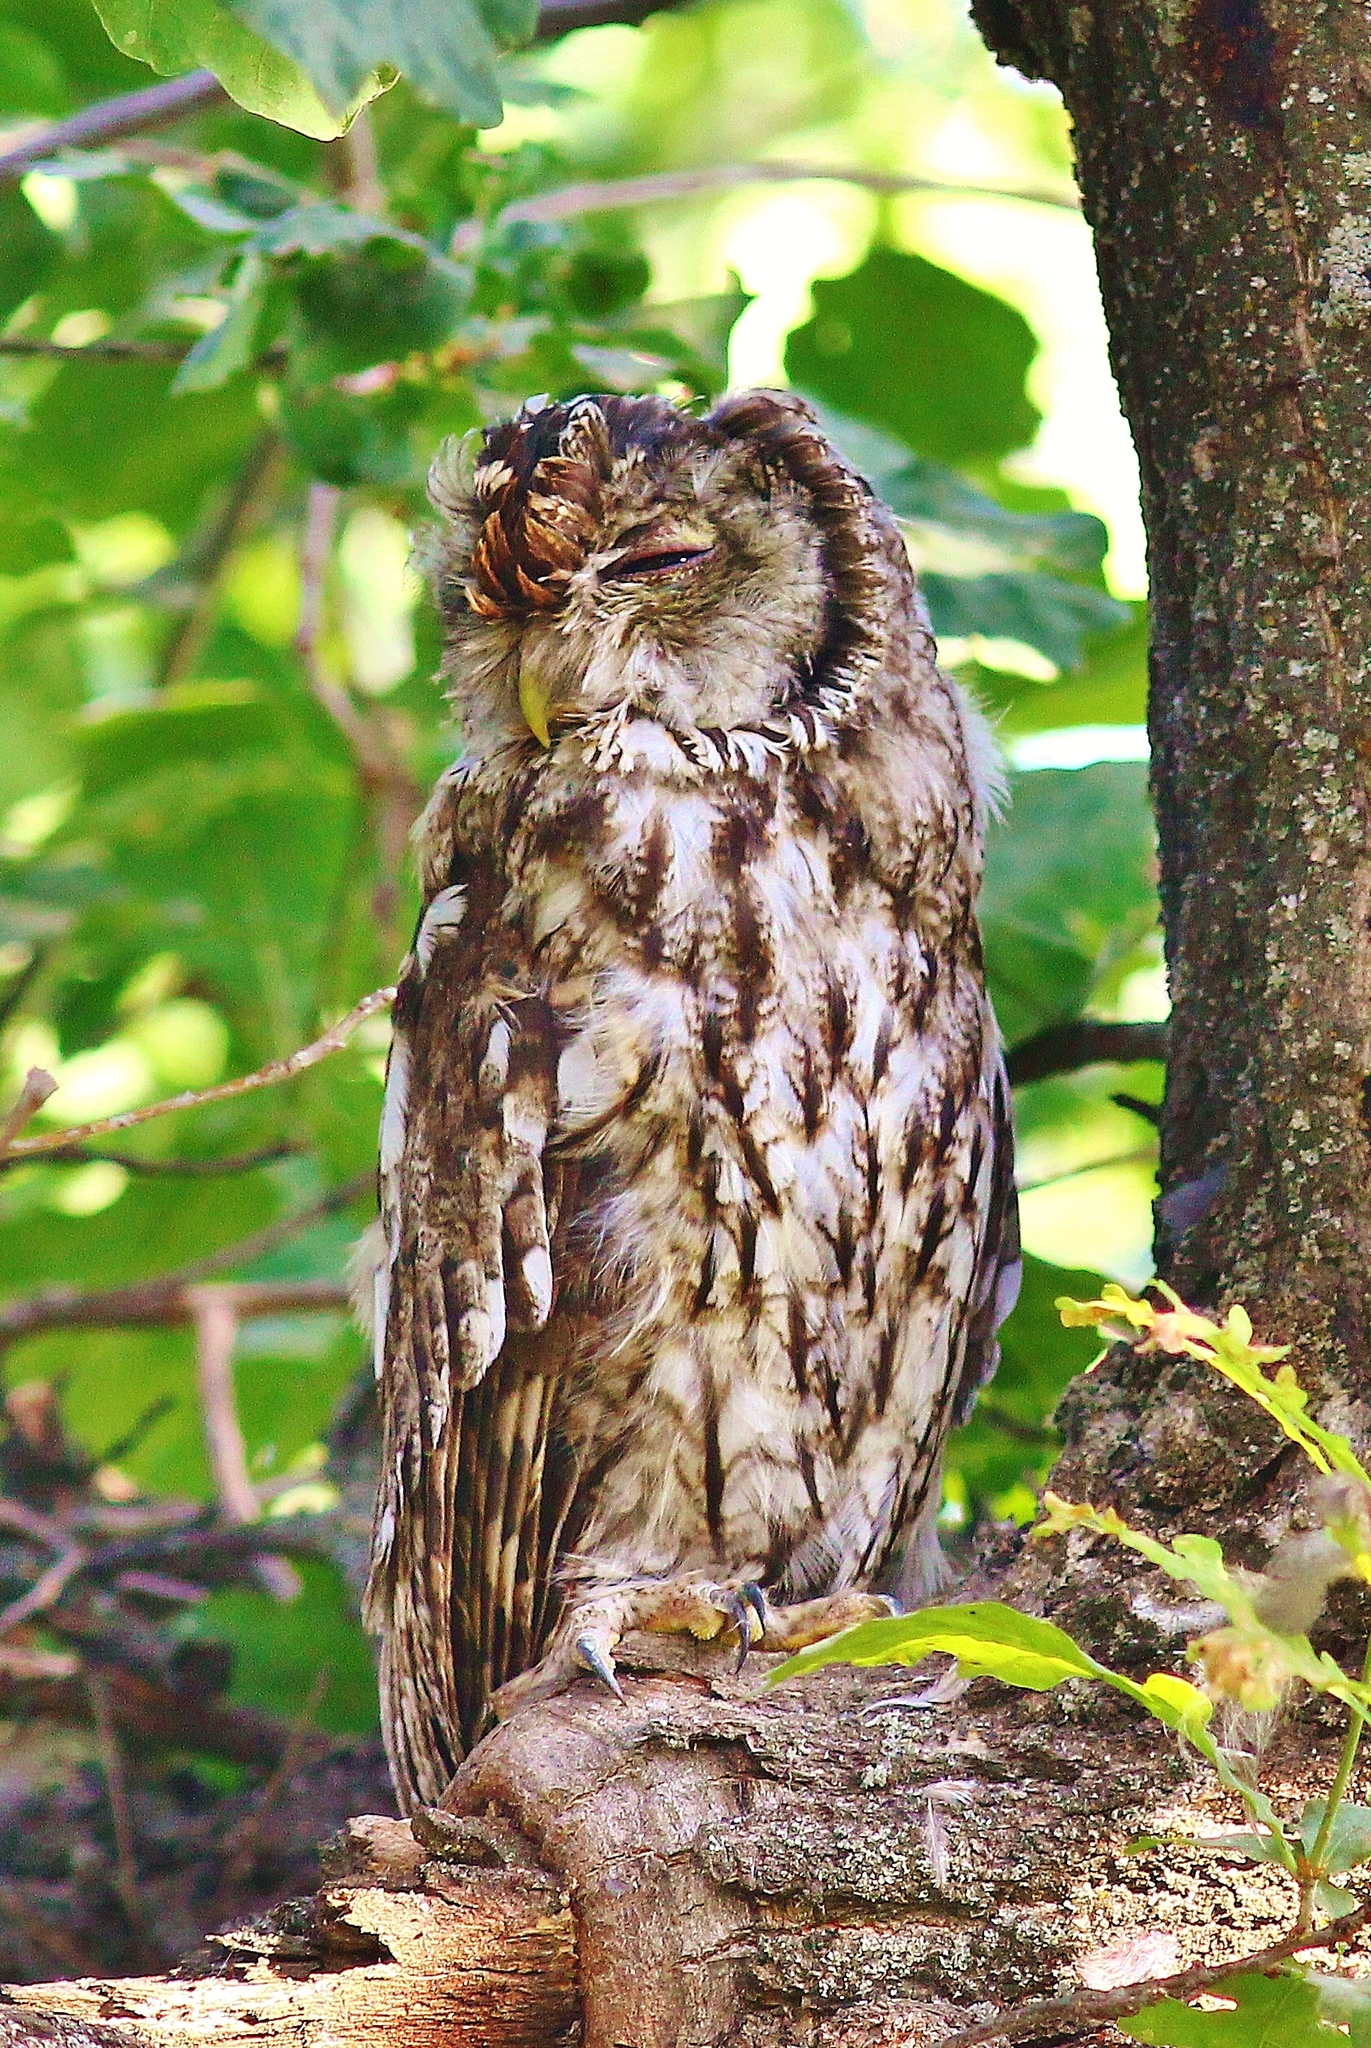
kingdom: Animalia
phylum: Chordata
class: Aves
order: Strigiformes
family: Strigidae
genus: Strix
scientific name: Strix aluco
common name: Tawny owl
